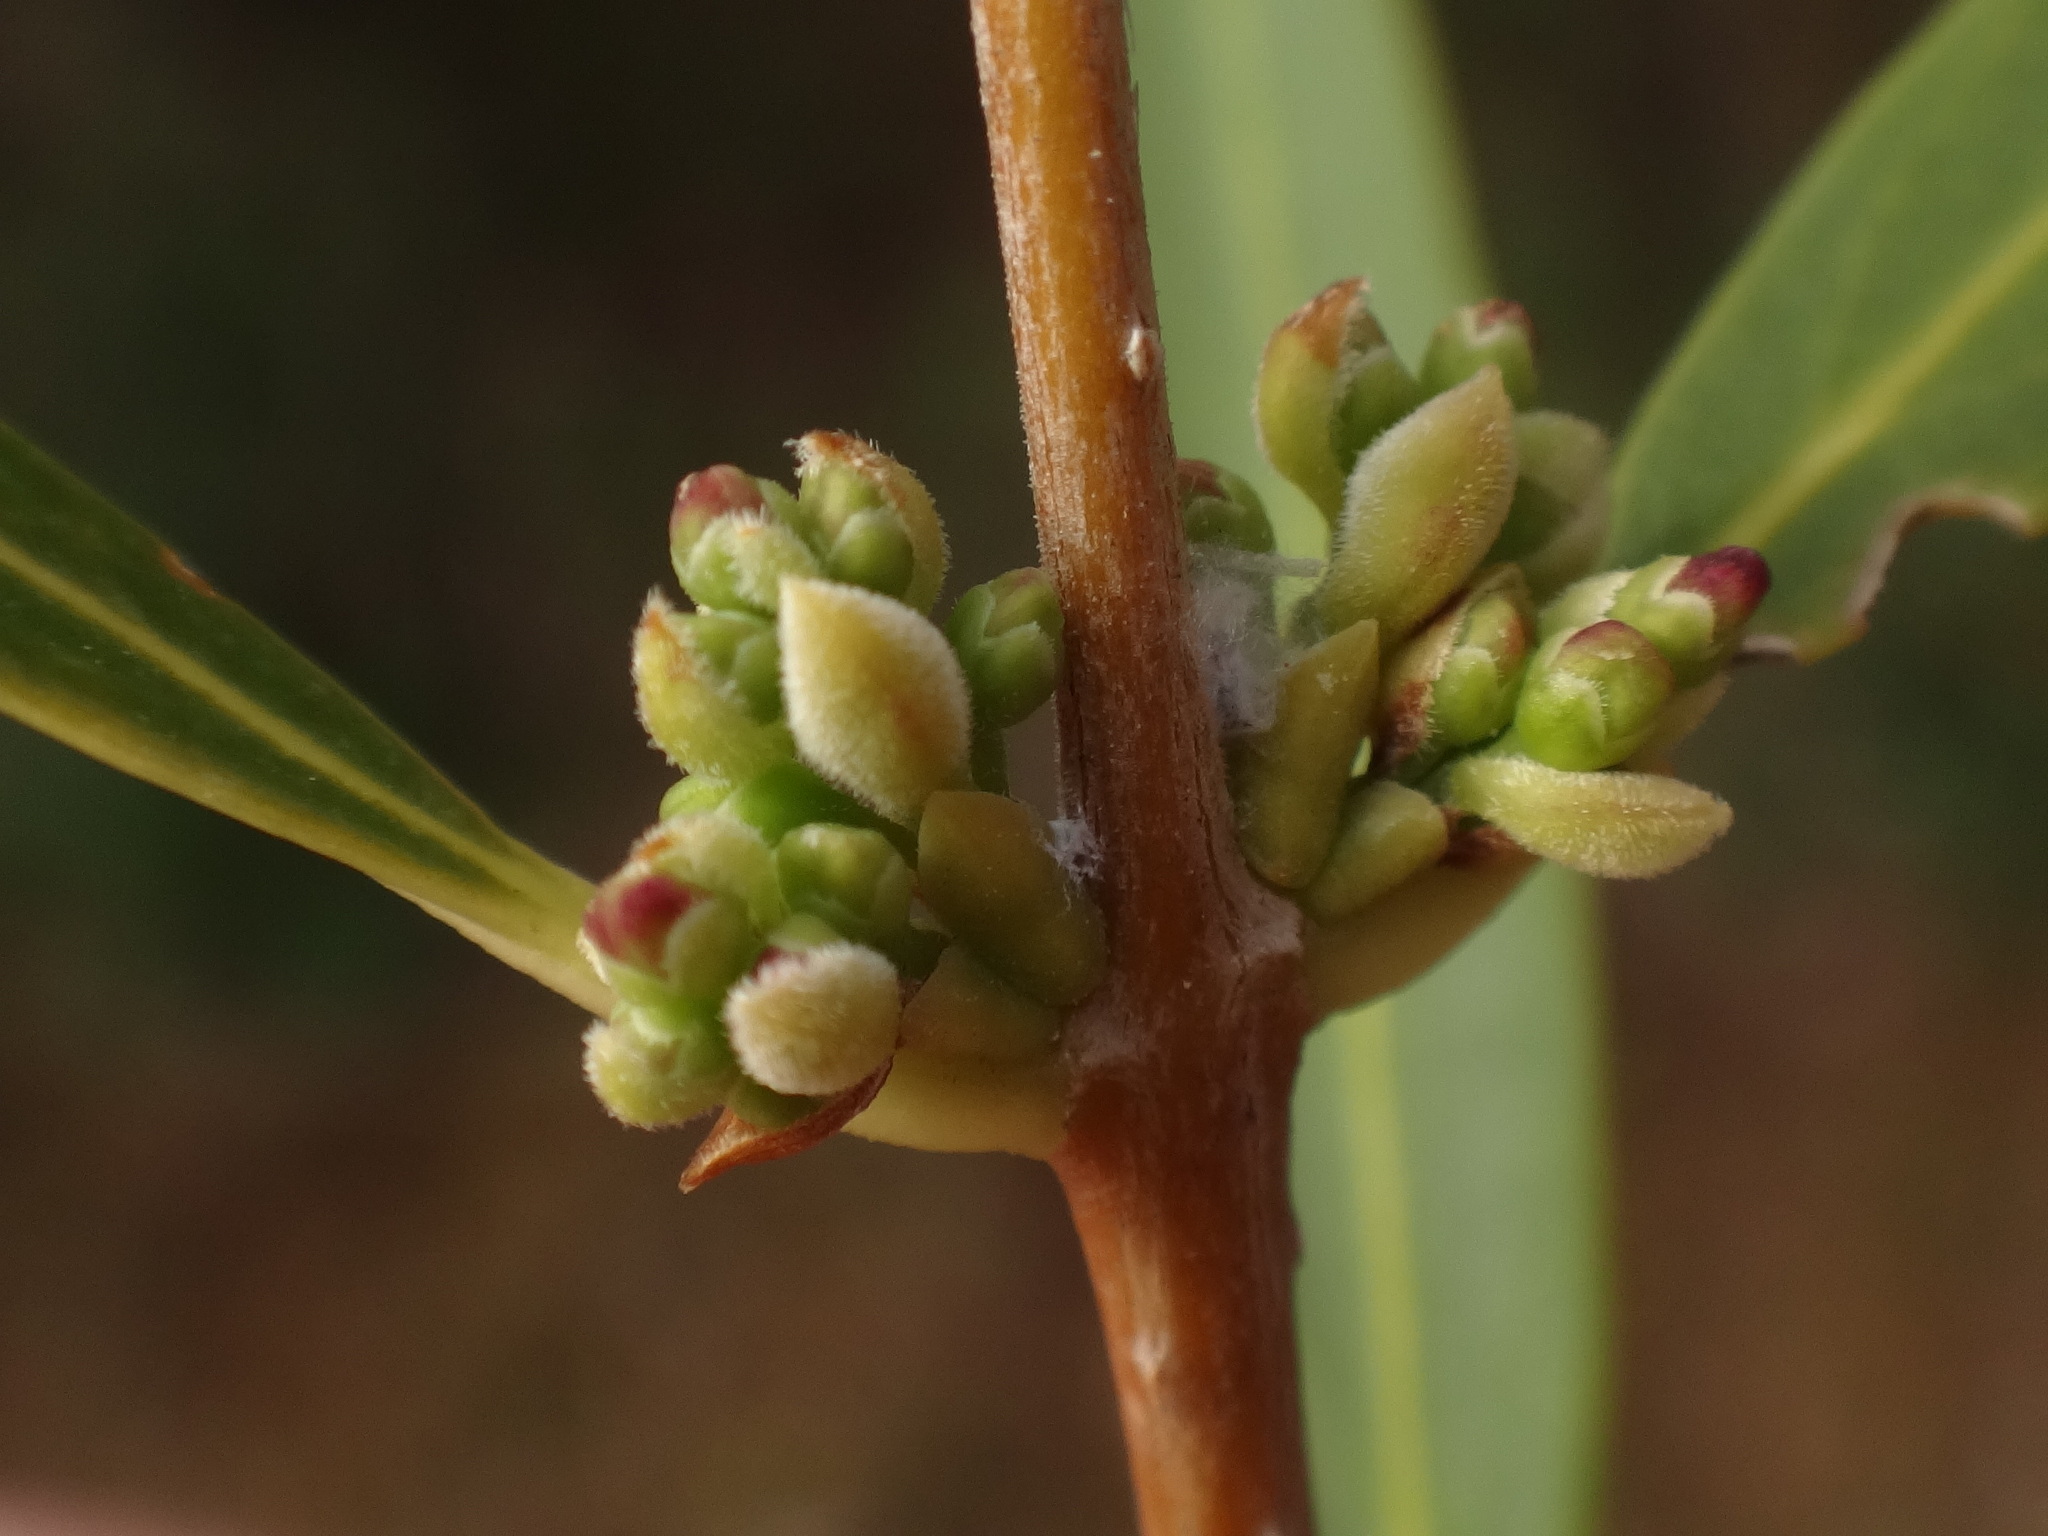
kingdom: Plantae
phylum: Tracheophyta
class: Magnoliopsida
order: Lamiales
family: Oleaceae
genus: Phillyrea
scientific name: Phillyrea angustifolia
